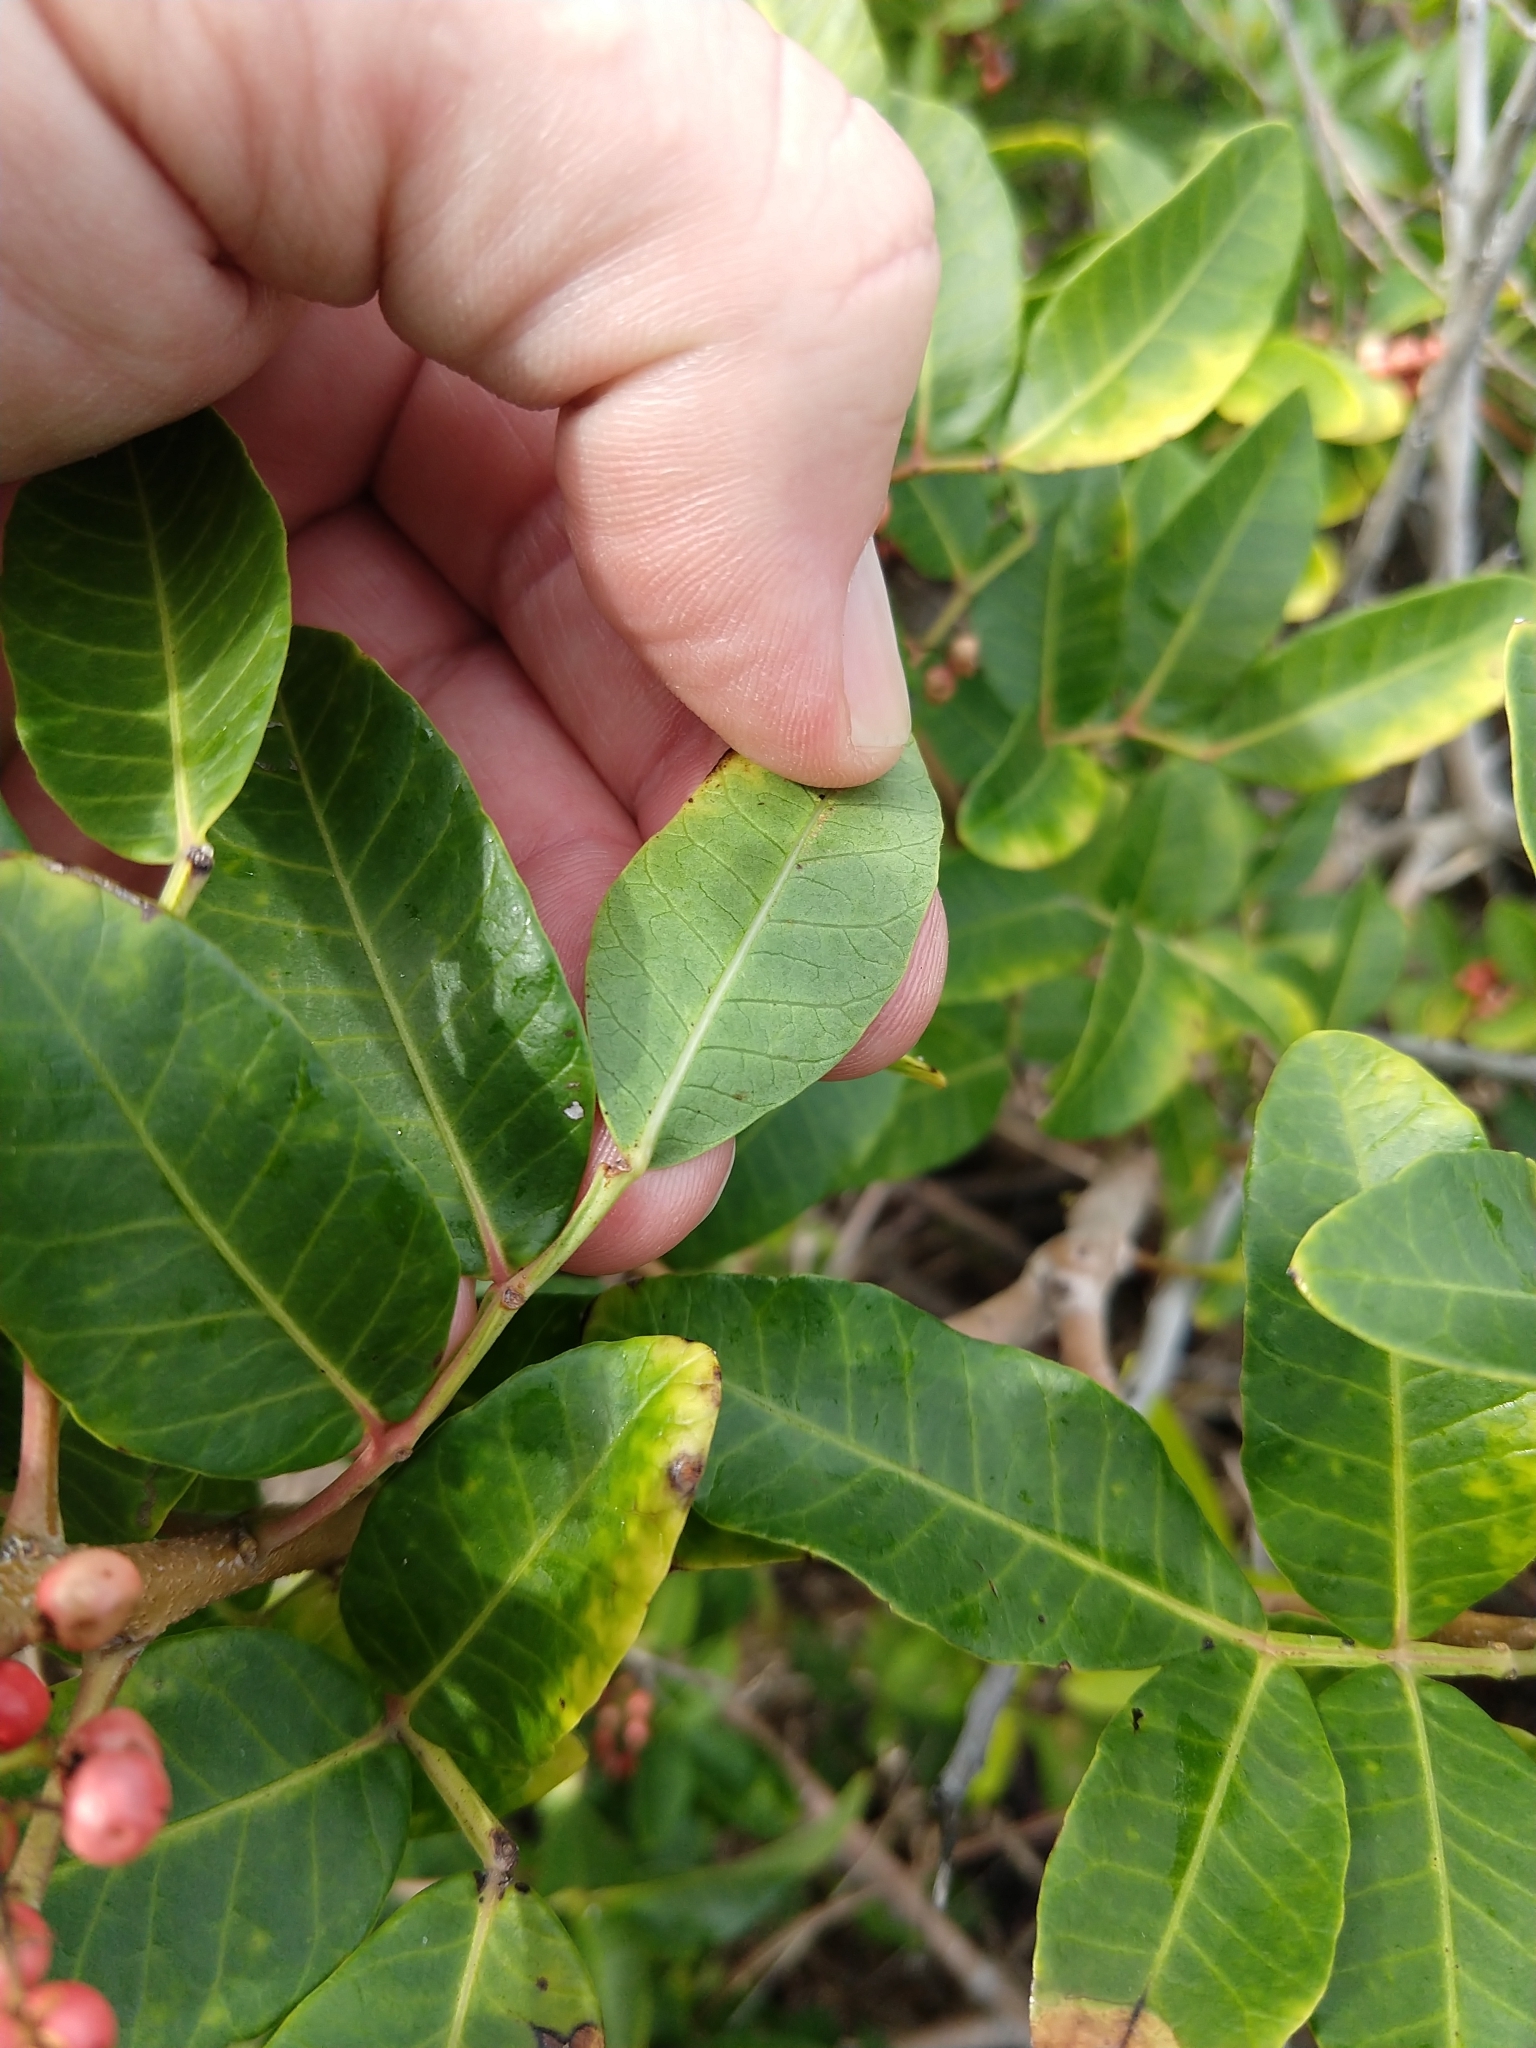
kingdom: Plantae
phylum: Tracheophyta
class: Magnoliopsida
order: Sapindales
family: Anacardiaceae
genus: Schinus
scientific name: Schinus terebinthifolia
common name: Brazilian peppertree
